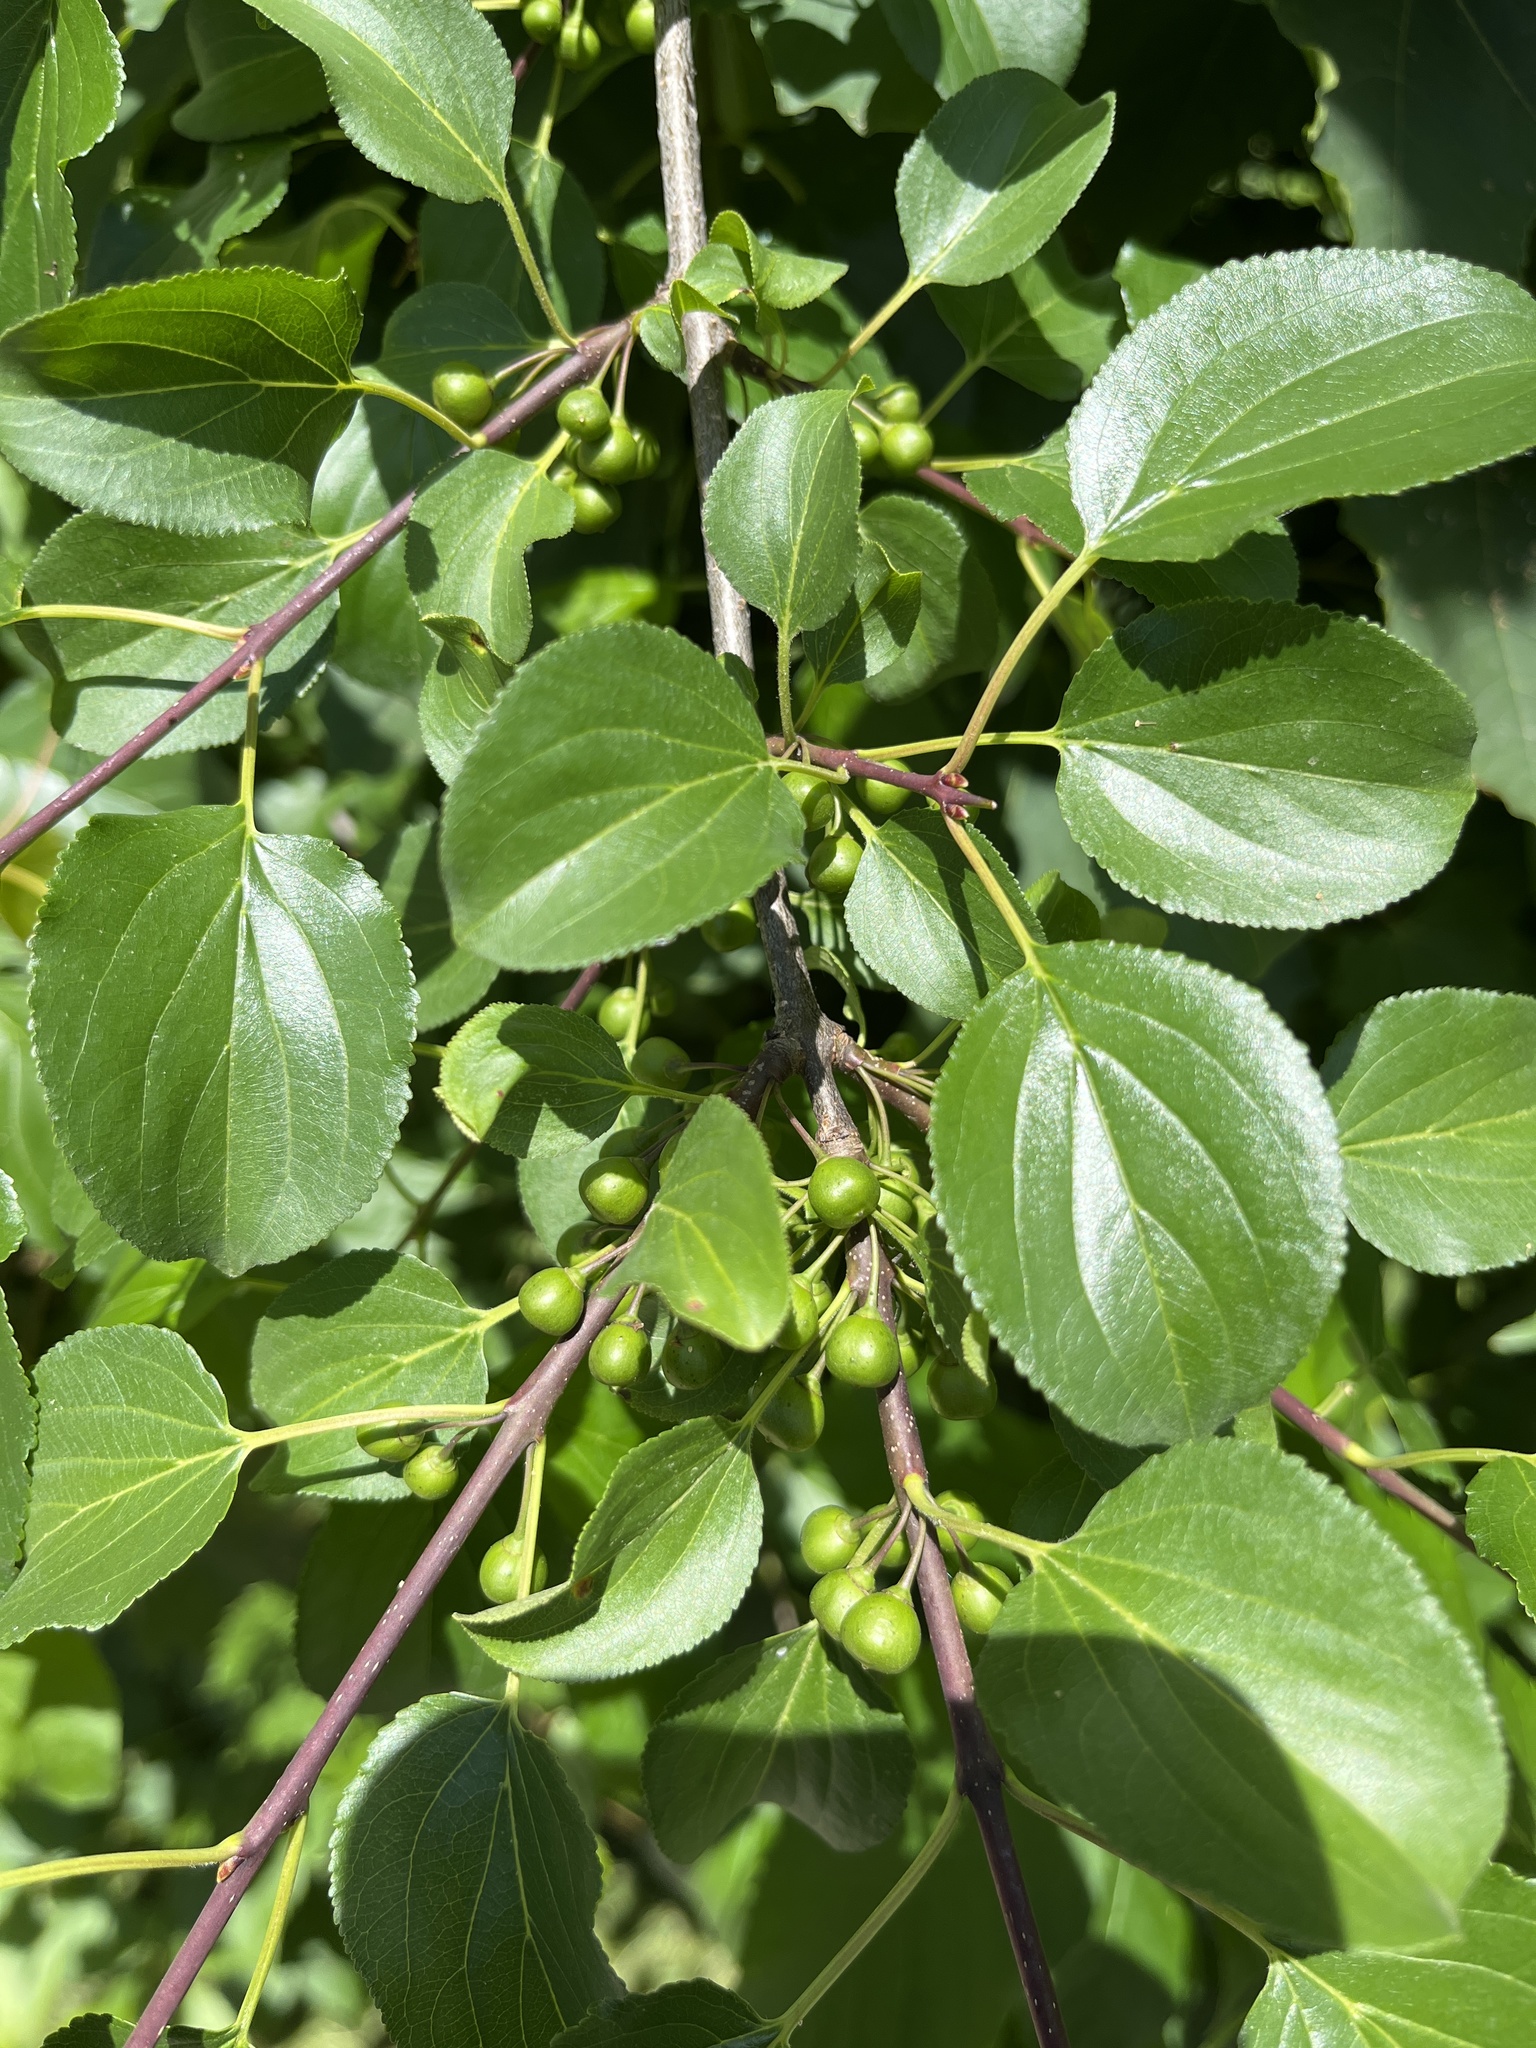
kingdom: Plantae
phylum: Tracheophyta
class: Magnoliopsida
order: Rosales
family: Rhamnaceae
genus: Rhamnus
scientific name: Rhamnus cathartica
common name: Common buckthorn
